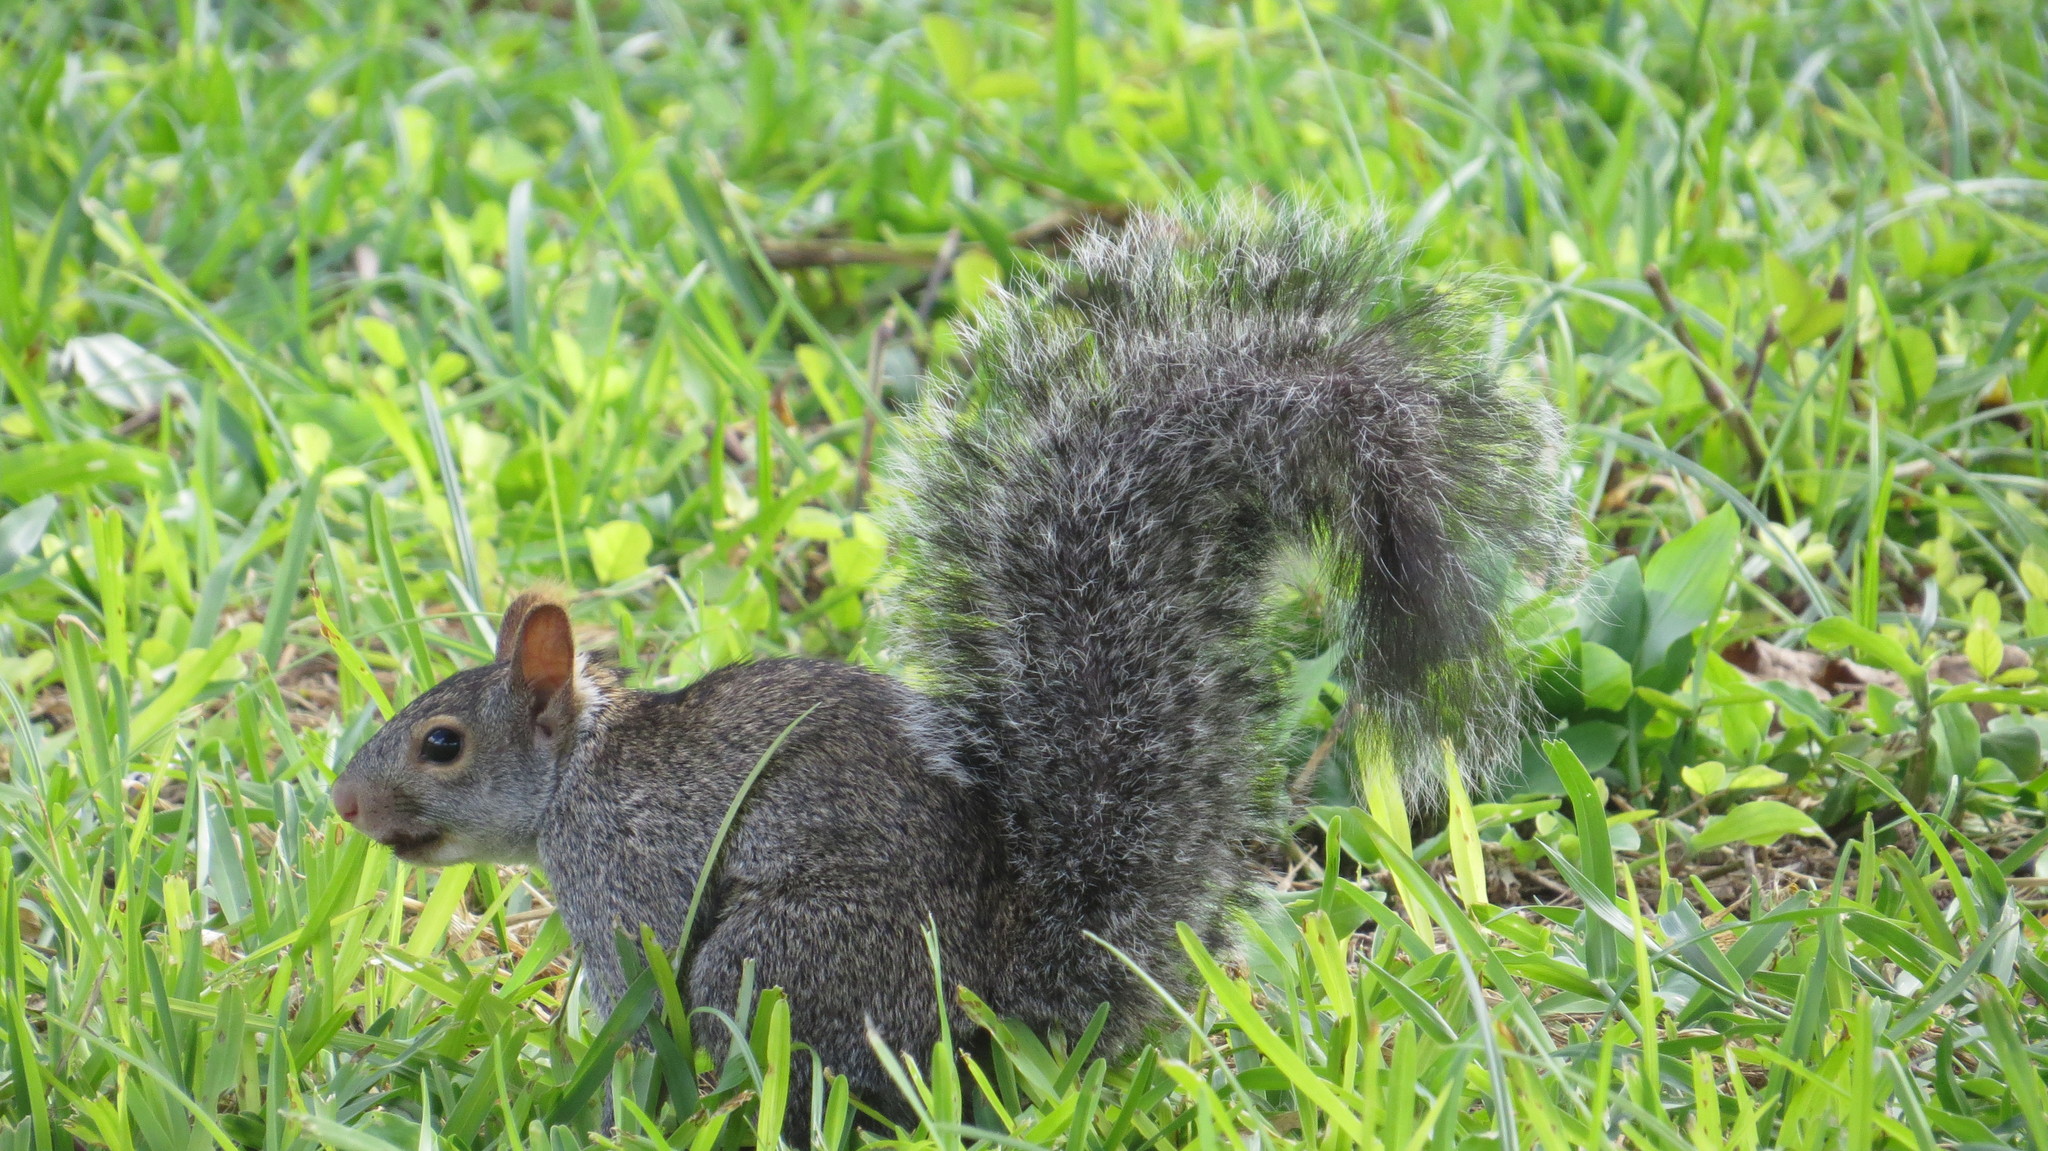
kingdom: Animalia
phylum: Chordata
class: Mammalia
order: Rodentia
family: Sciuridae
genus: Sciurus
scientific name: Sciurus yucatanensis
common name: Yucatan squirrel
